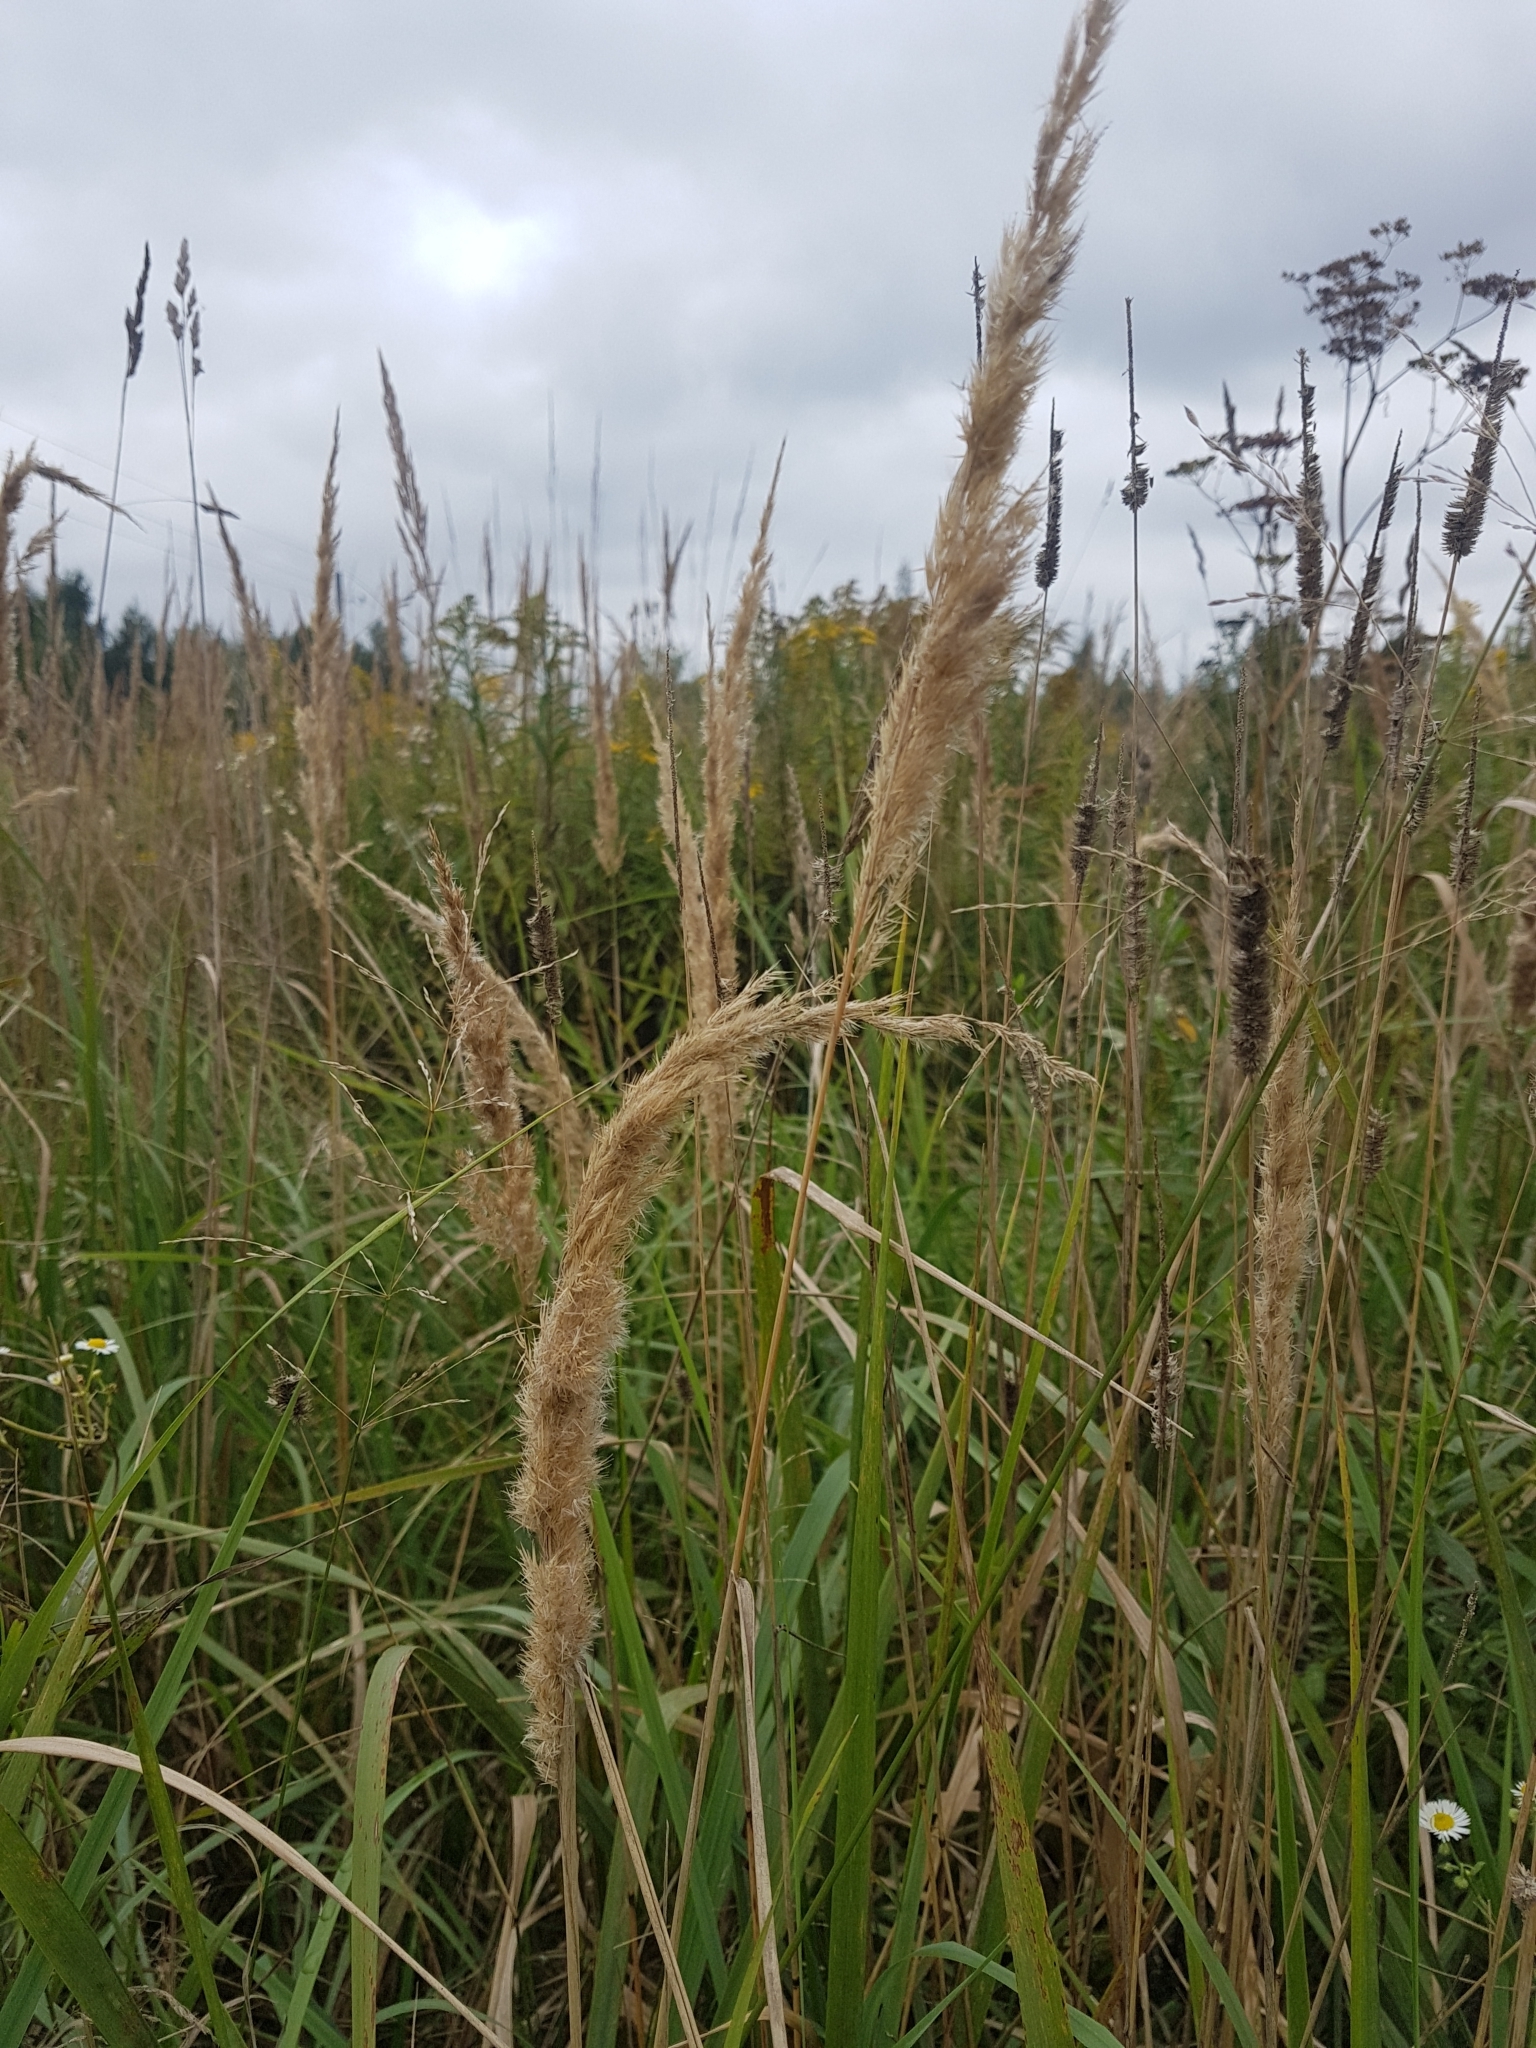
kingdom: Plantae
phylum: Tracheophyta
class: Liliopsida
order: Poales
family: Poaceae
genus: Calamagrostis
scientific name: Calamagrostis epigejos
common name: Wood small-reed
